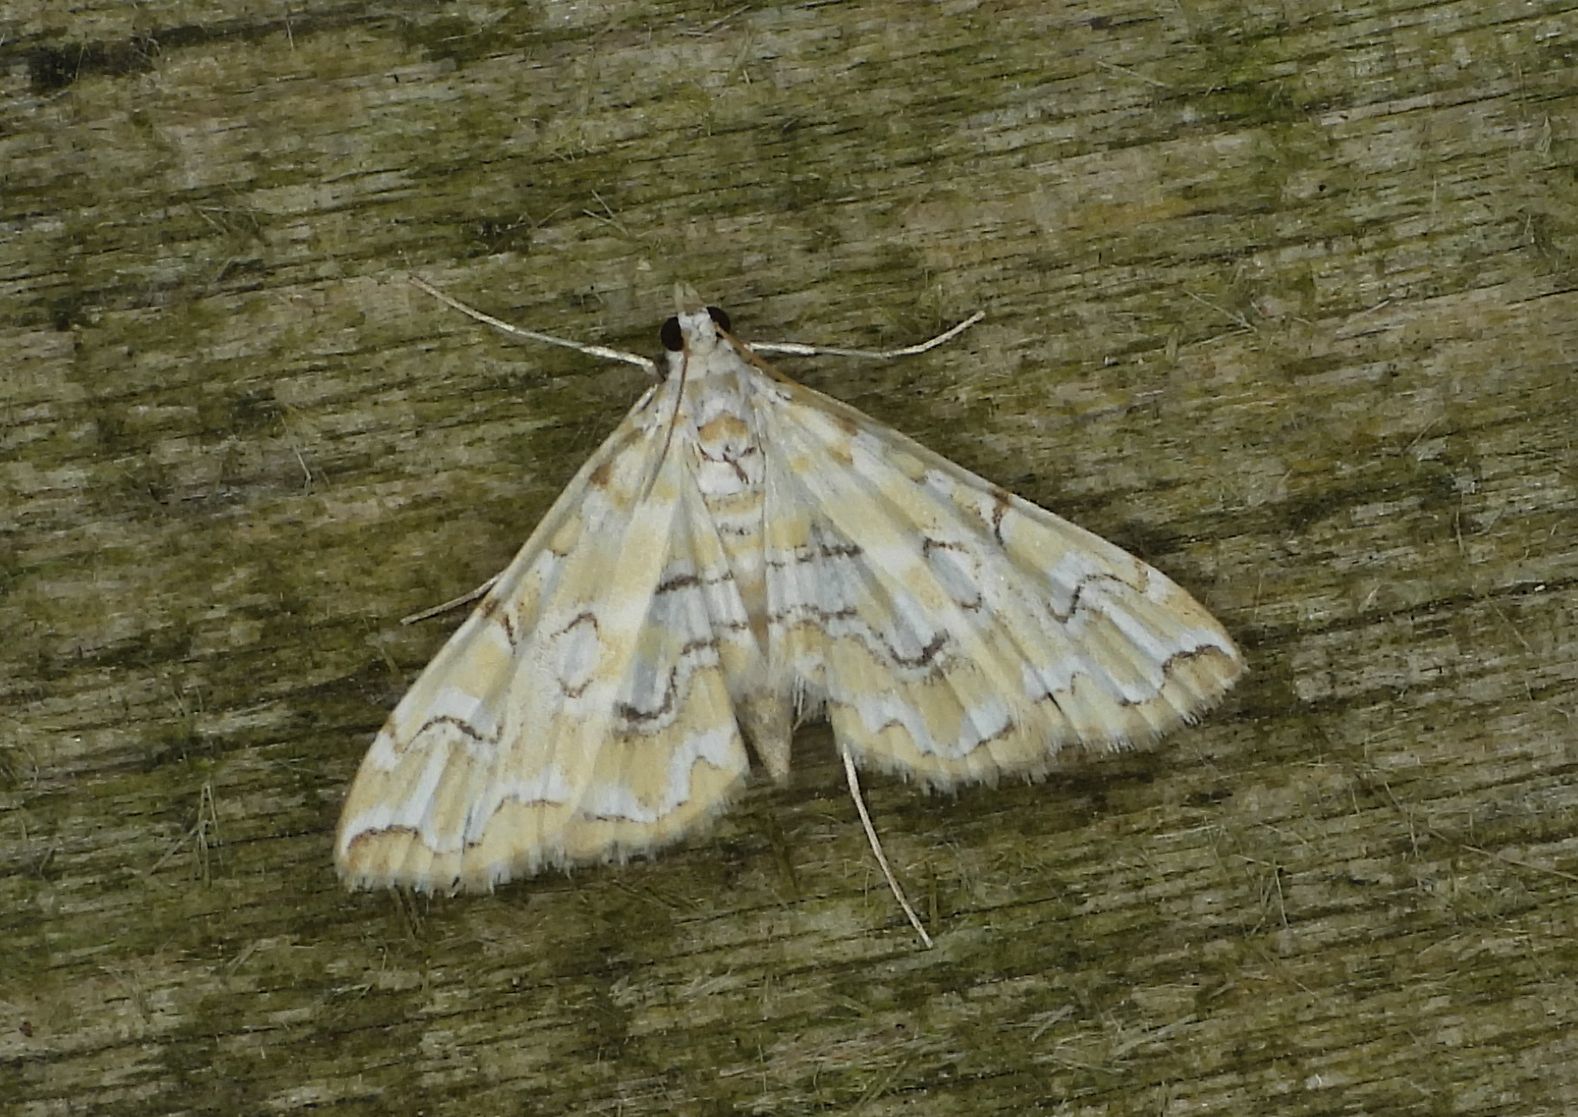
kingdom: Animalia
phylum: Arthropoda
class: Insecta
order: Lepidoptera
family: Crambidae
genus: Elophila
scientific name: Elophila icciusalis
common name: Pondside pyralid moth
